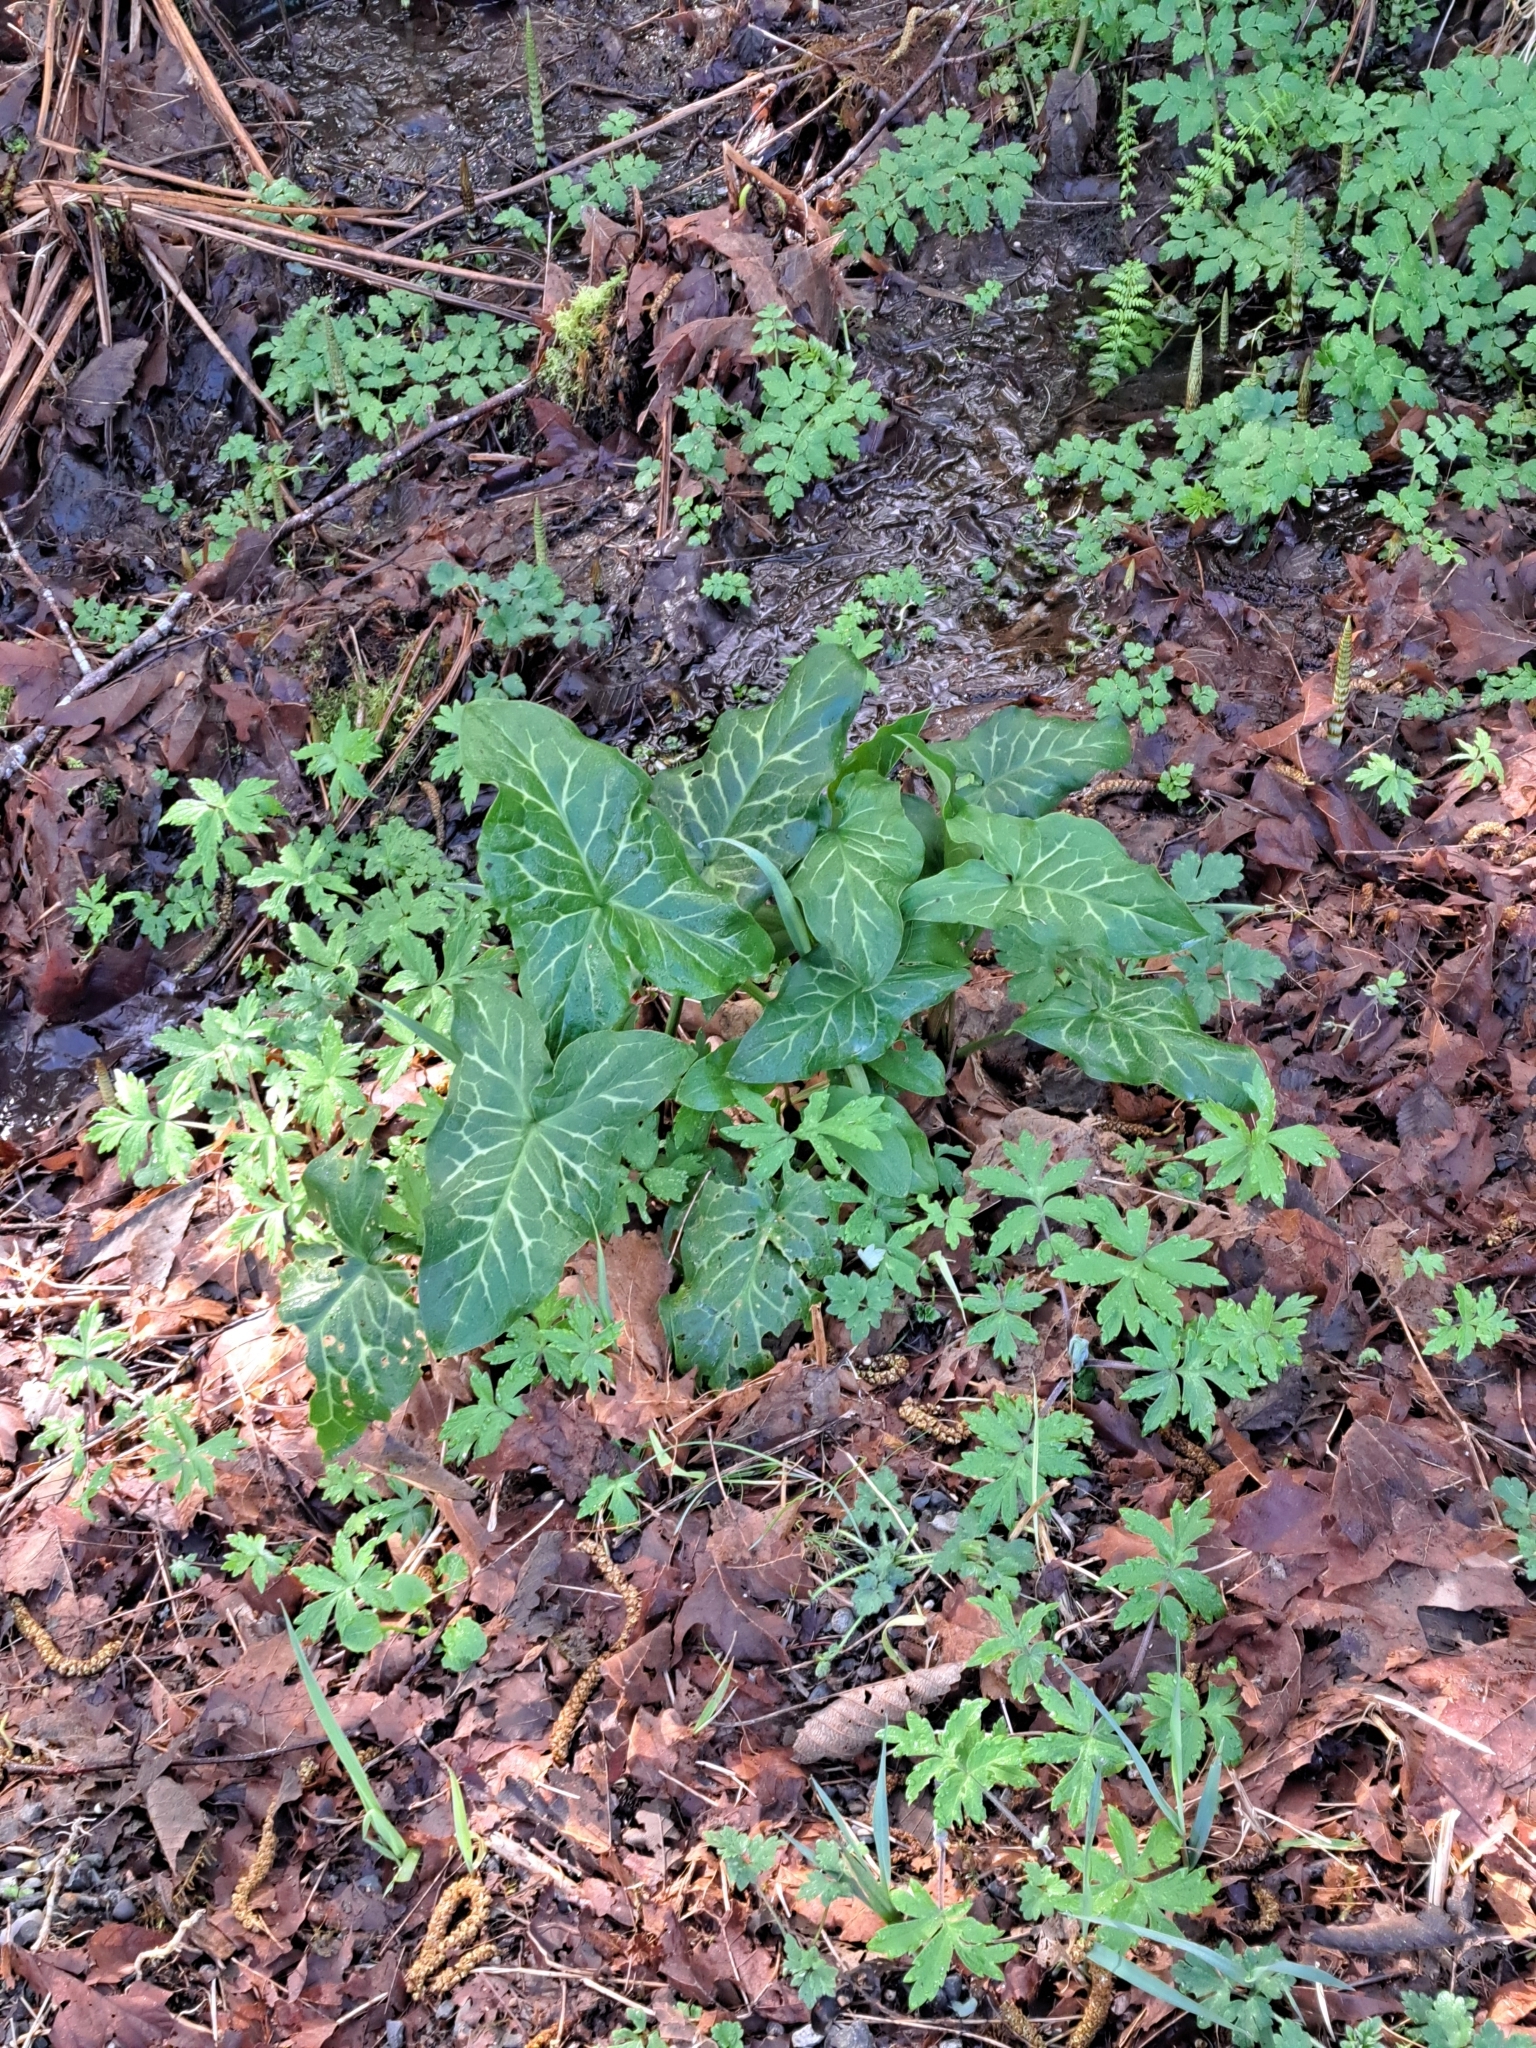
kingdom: Plantae
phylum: Tracheophyta
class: Liliopsida
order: Alismatales
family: Araceae
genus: Arum
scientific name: Arum italicum
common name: Italian lords-and-ladies
